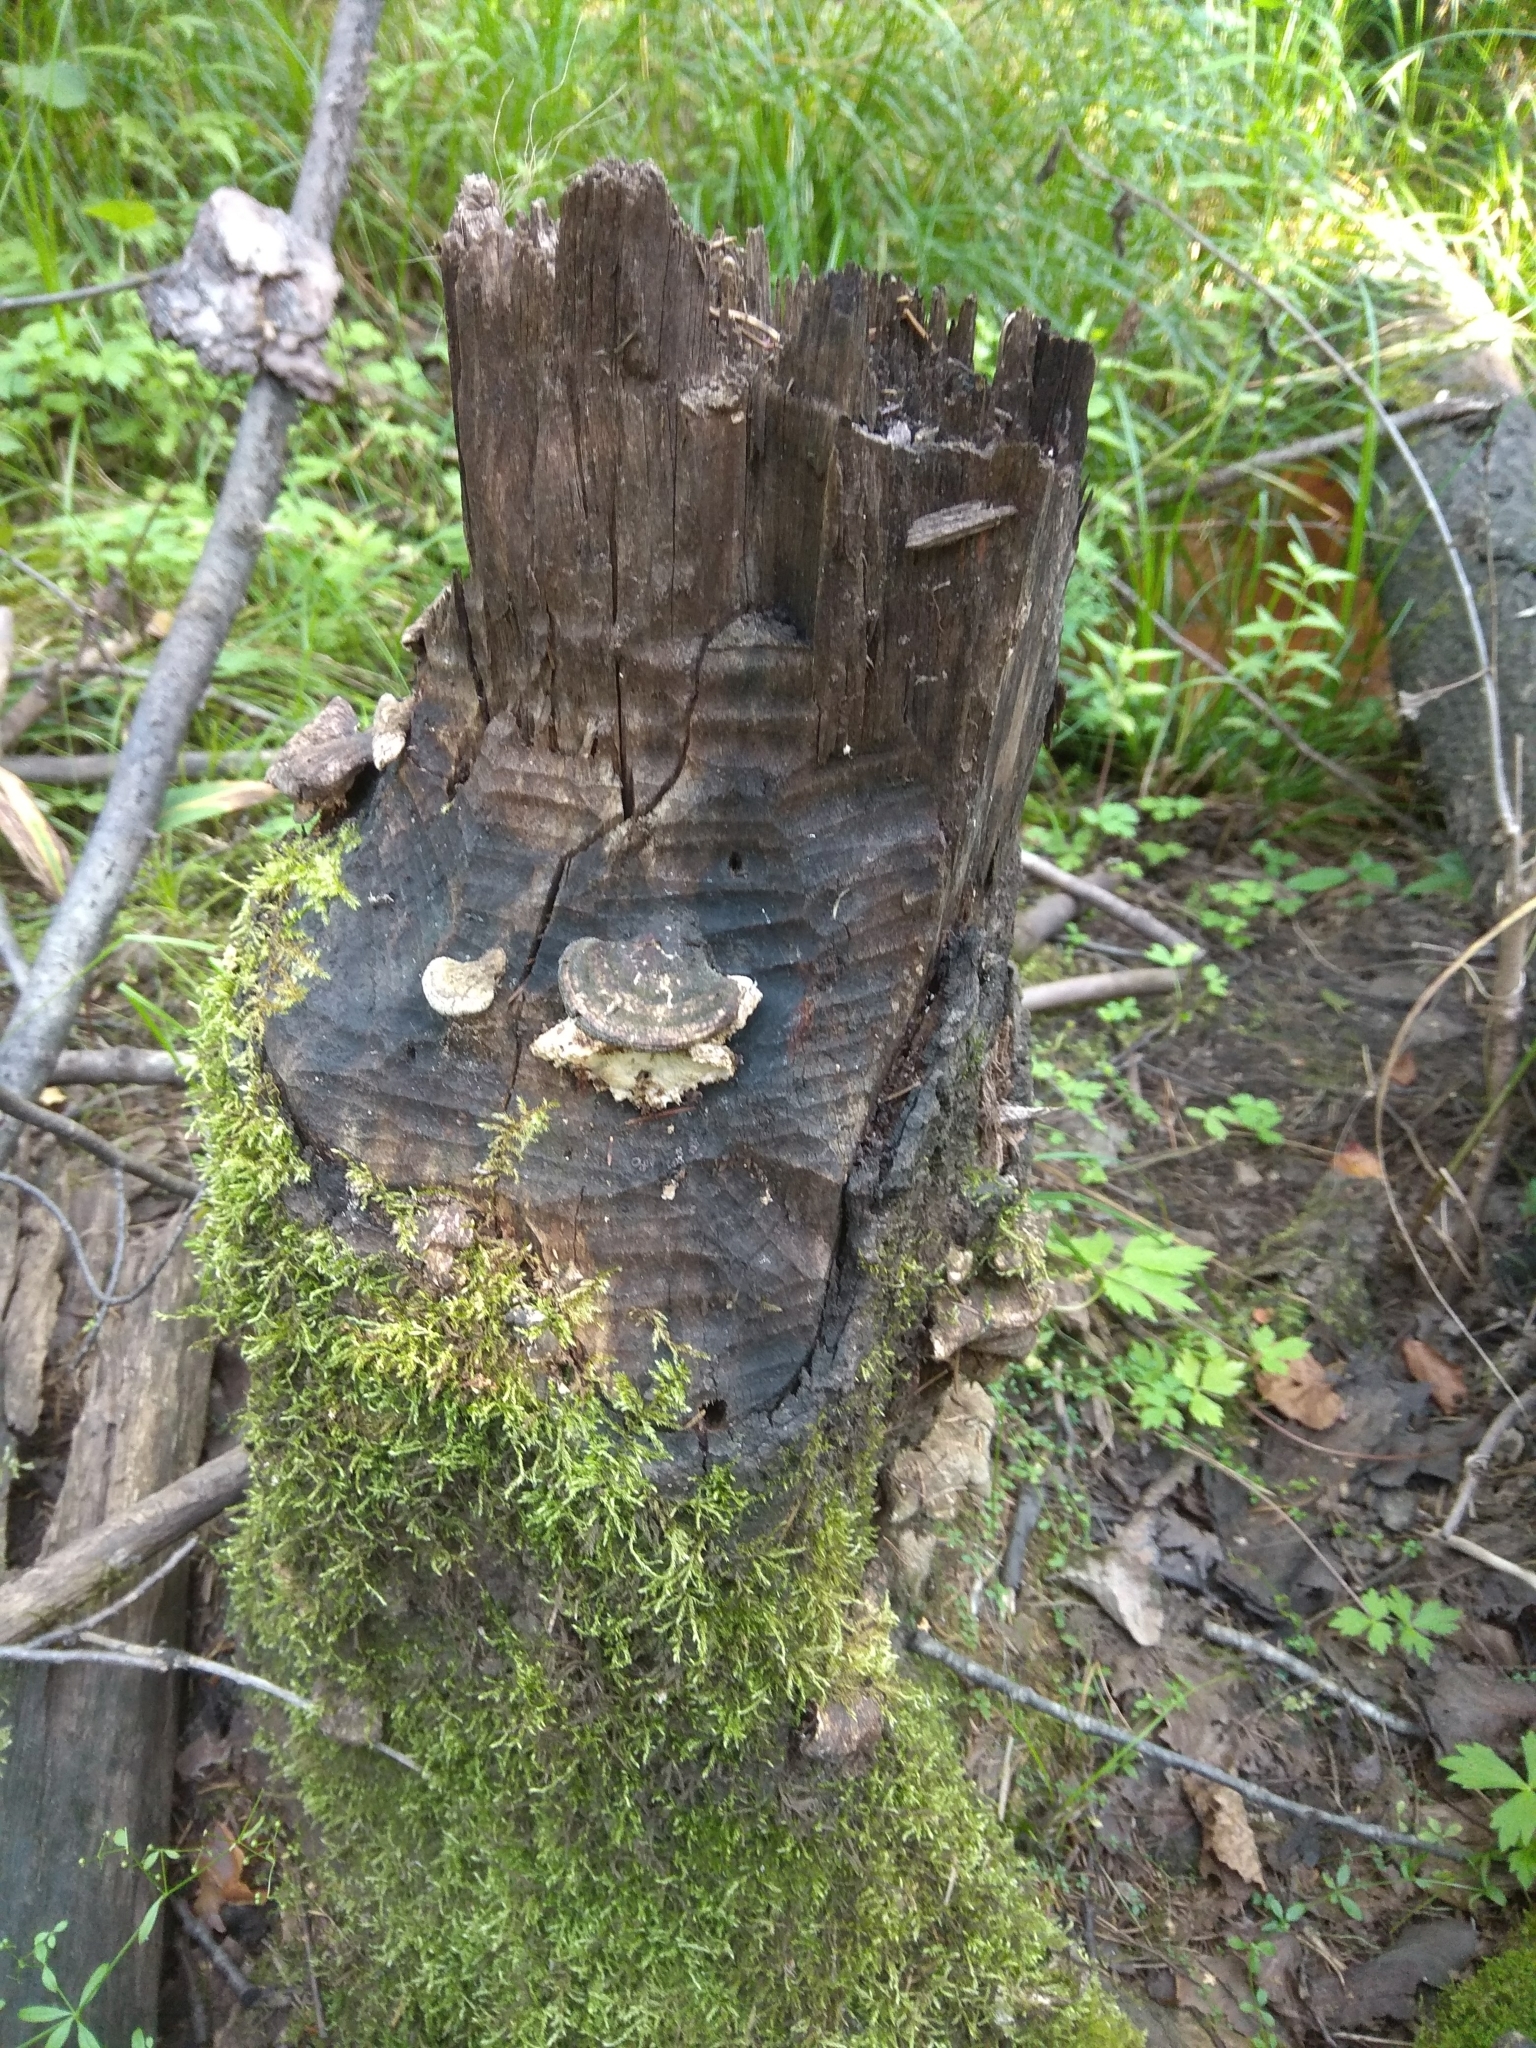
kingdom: Animalia
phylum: Chordata
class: Mammalia
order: Rodentia
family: Castoridae
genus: Castor
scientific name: Castor fiber
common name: Eurasian beaver
